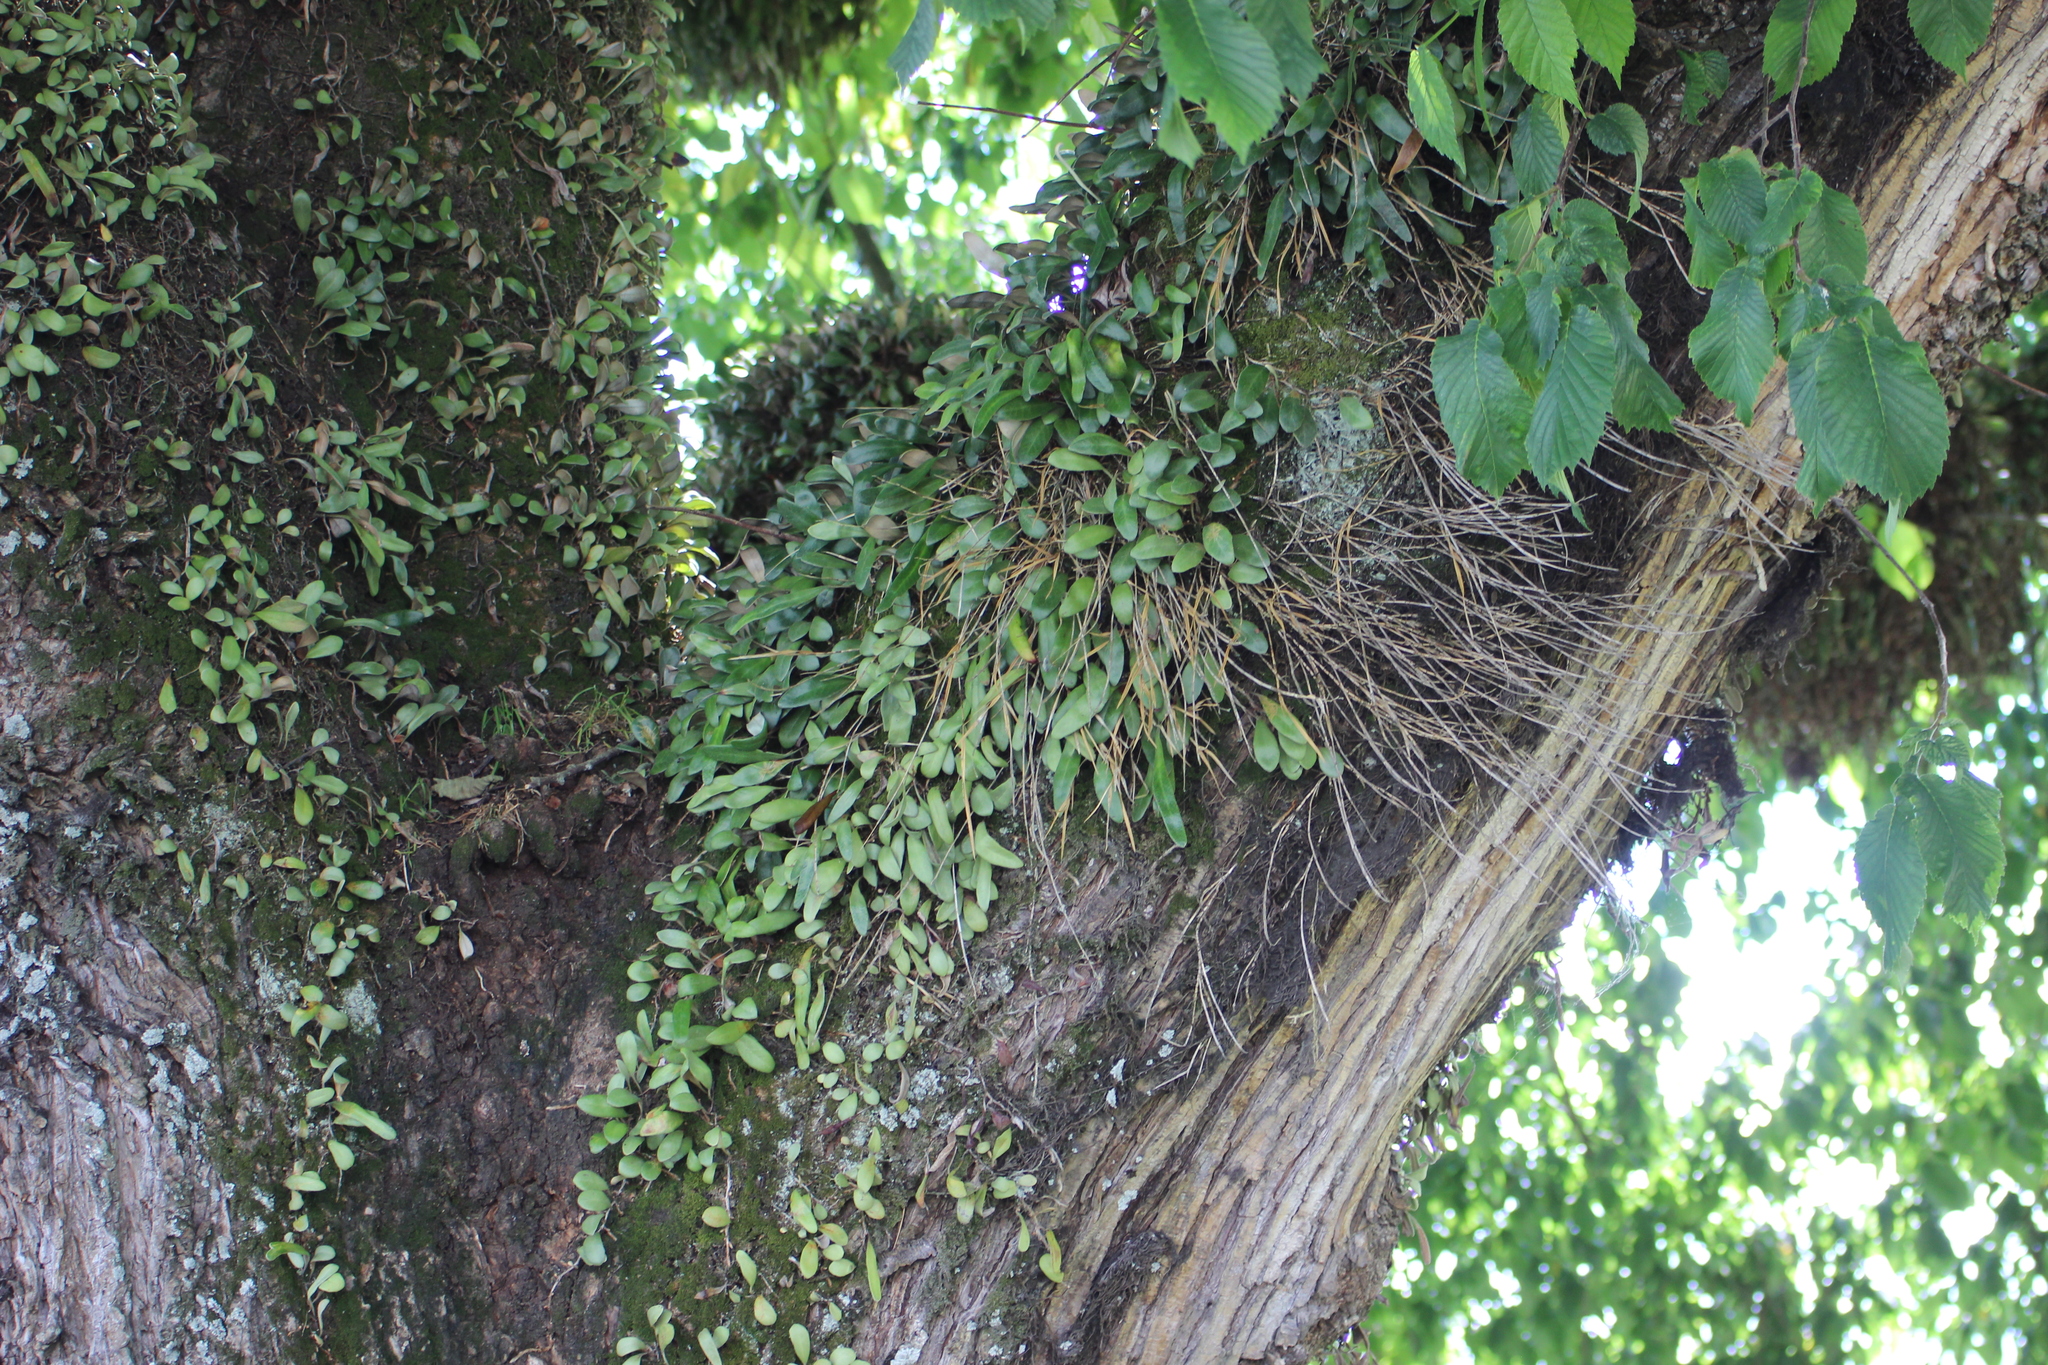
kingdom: Plantae
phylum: Tracheophyta
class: Polypodiopsida
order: Polypodiales
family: Polypodiaceae
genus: Pyrrosia
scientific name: Pyrrosia eleagnifolia
